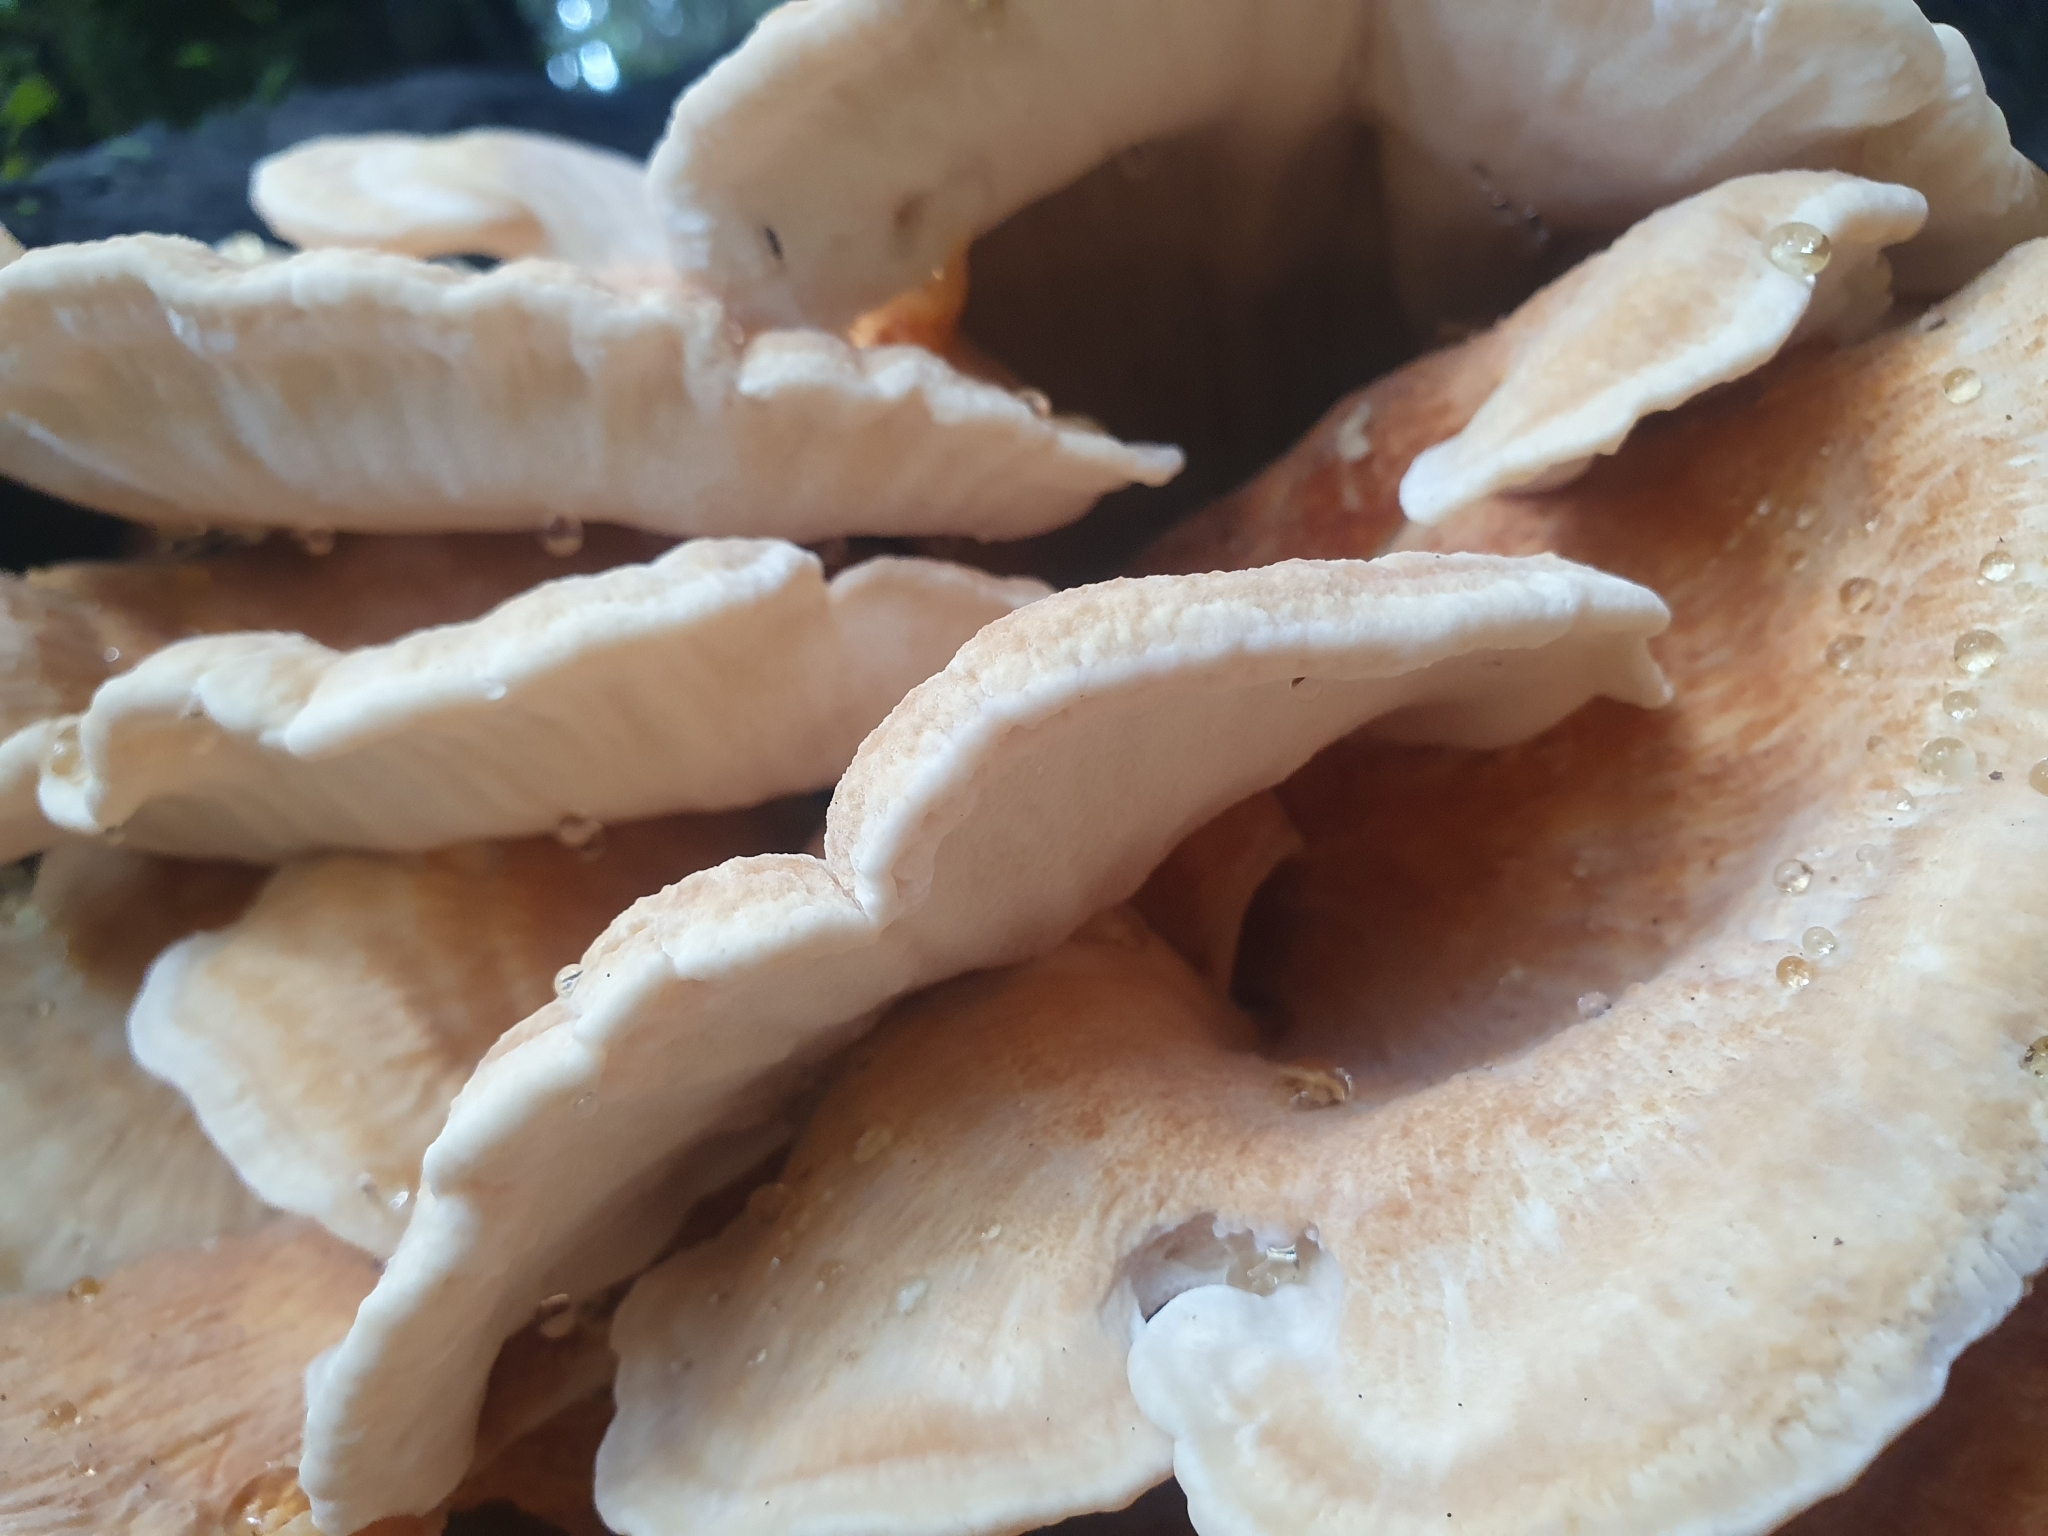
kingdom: Fungi
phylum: Basidiomycota
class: Agaricomycetes
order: Russulales
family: Bondarzewiaceae
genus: Bondarzewia
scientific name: Bondarzewia kirkii
